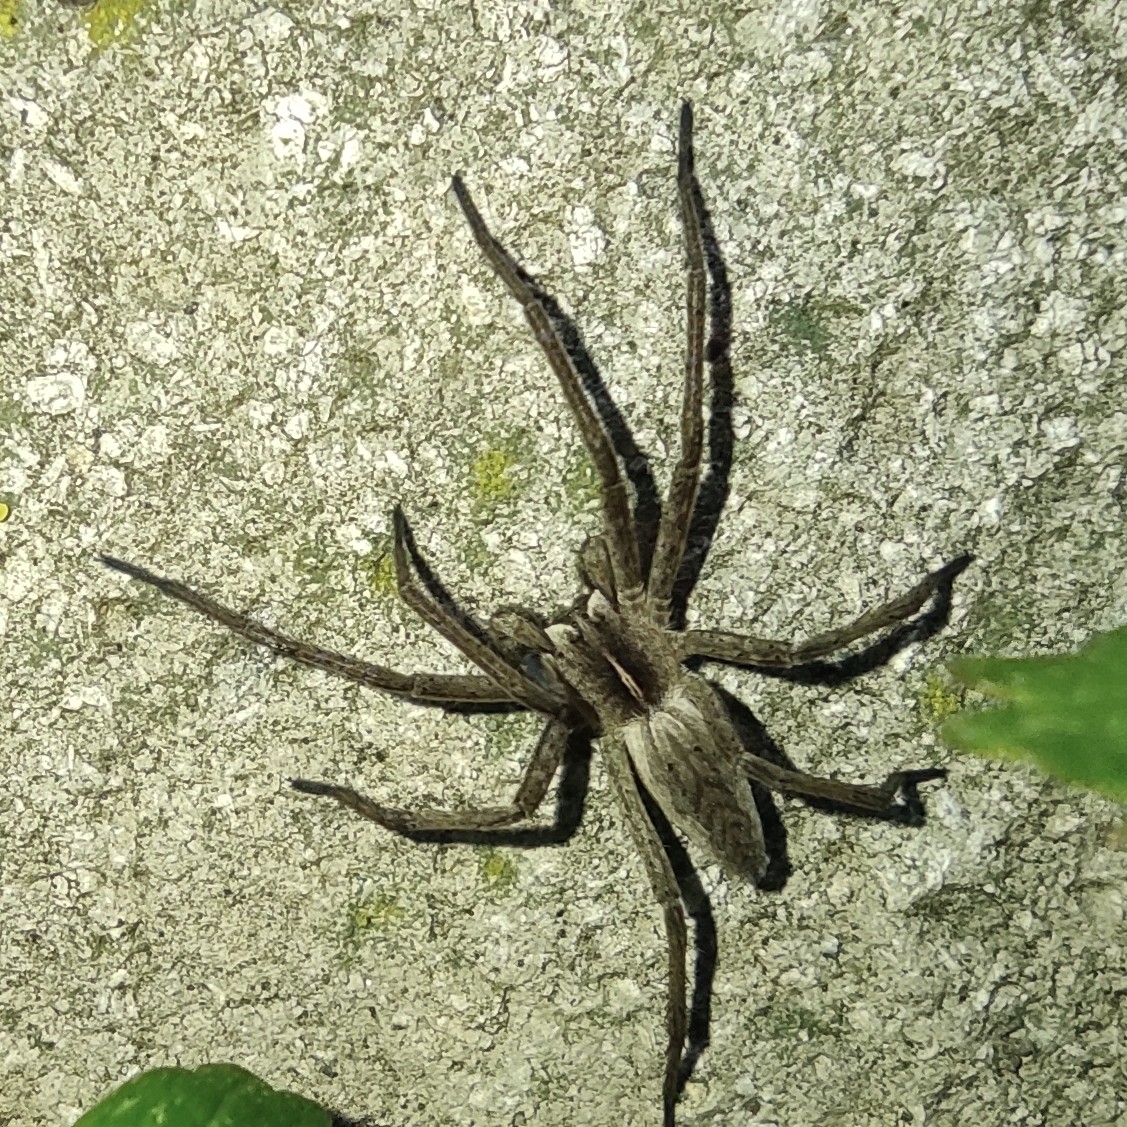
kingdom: Animalia
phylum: Arthropoda
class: Arachnida
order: Araneae
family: Pisauridae
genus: Pisaura
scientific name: Pisaura mirabilis
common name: Tent spider
